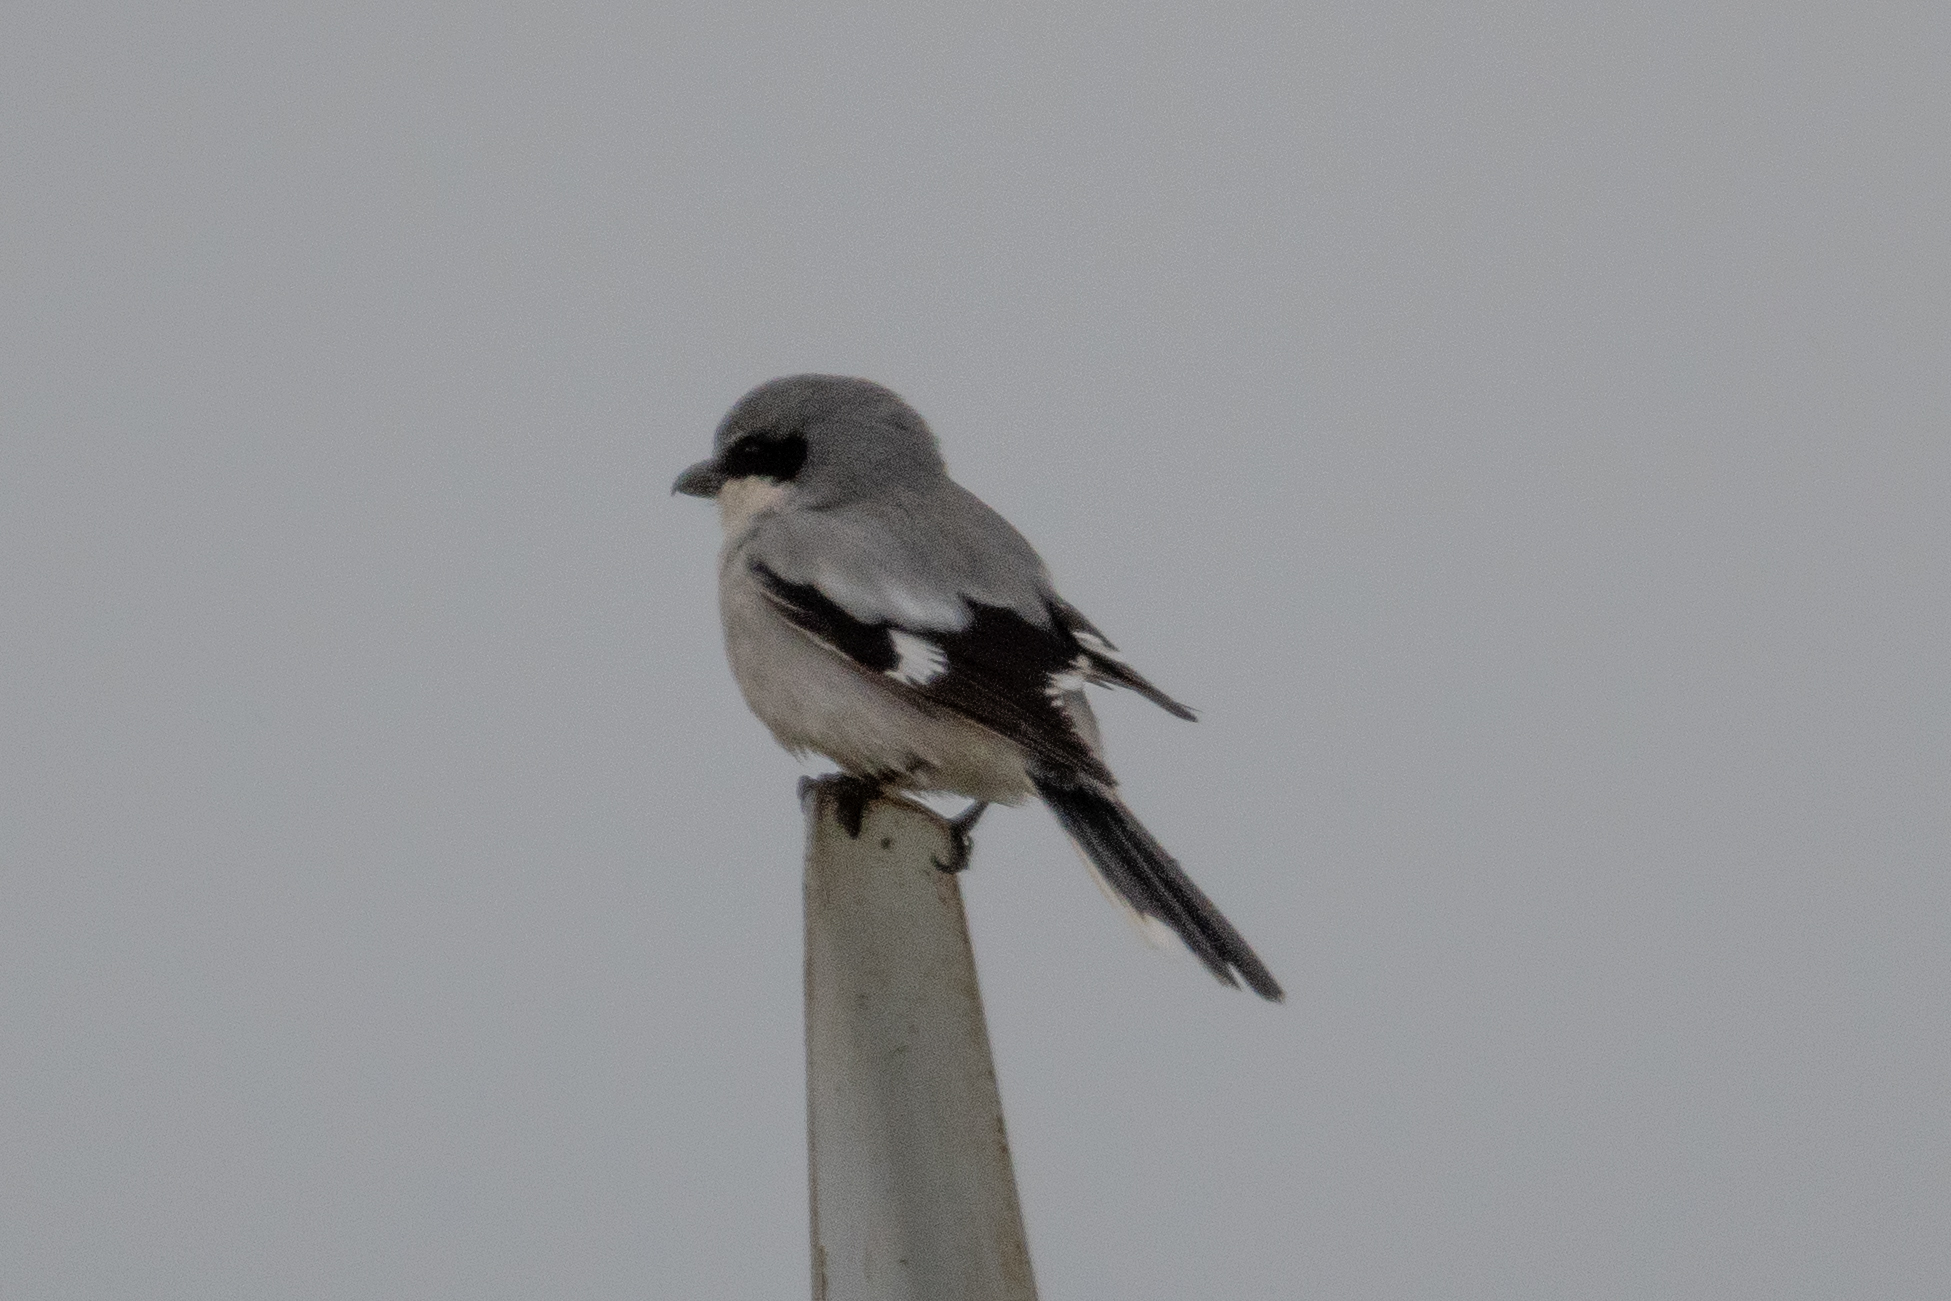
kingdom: Animalia
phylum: Chordata
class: Aves
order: Passeriformes
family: Laniidae
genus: Lanius
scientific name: Lanius ludovicianus
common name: Loggerhead shrike
